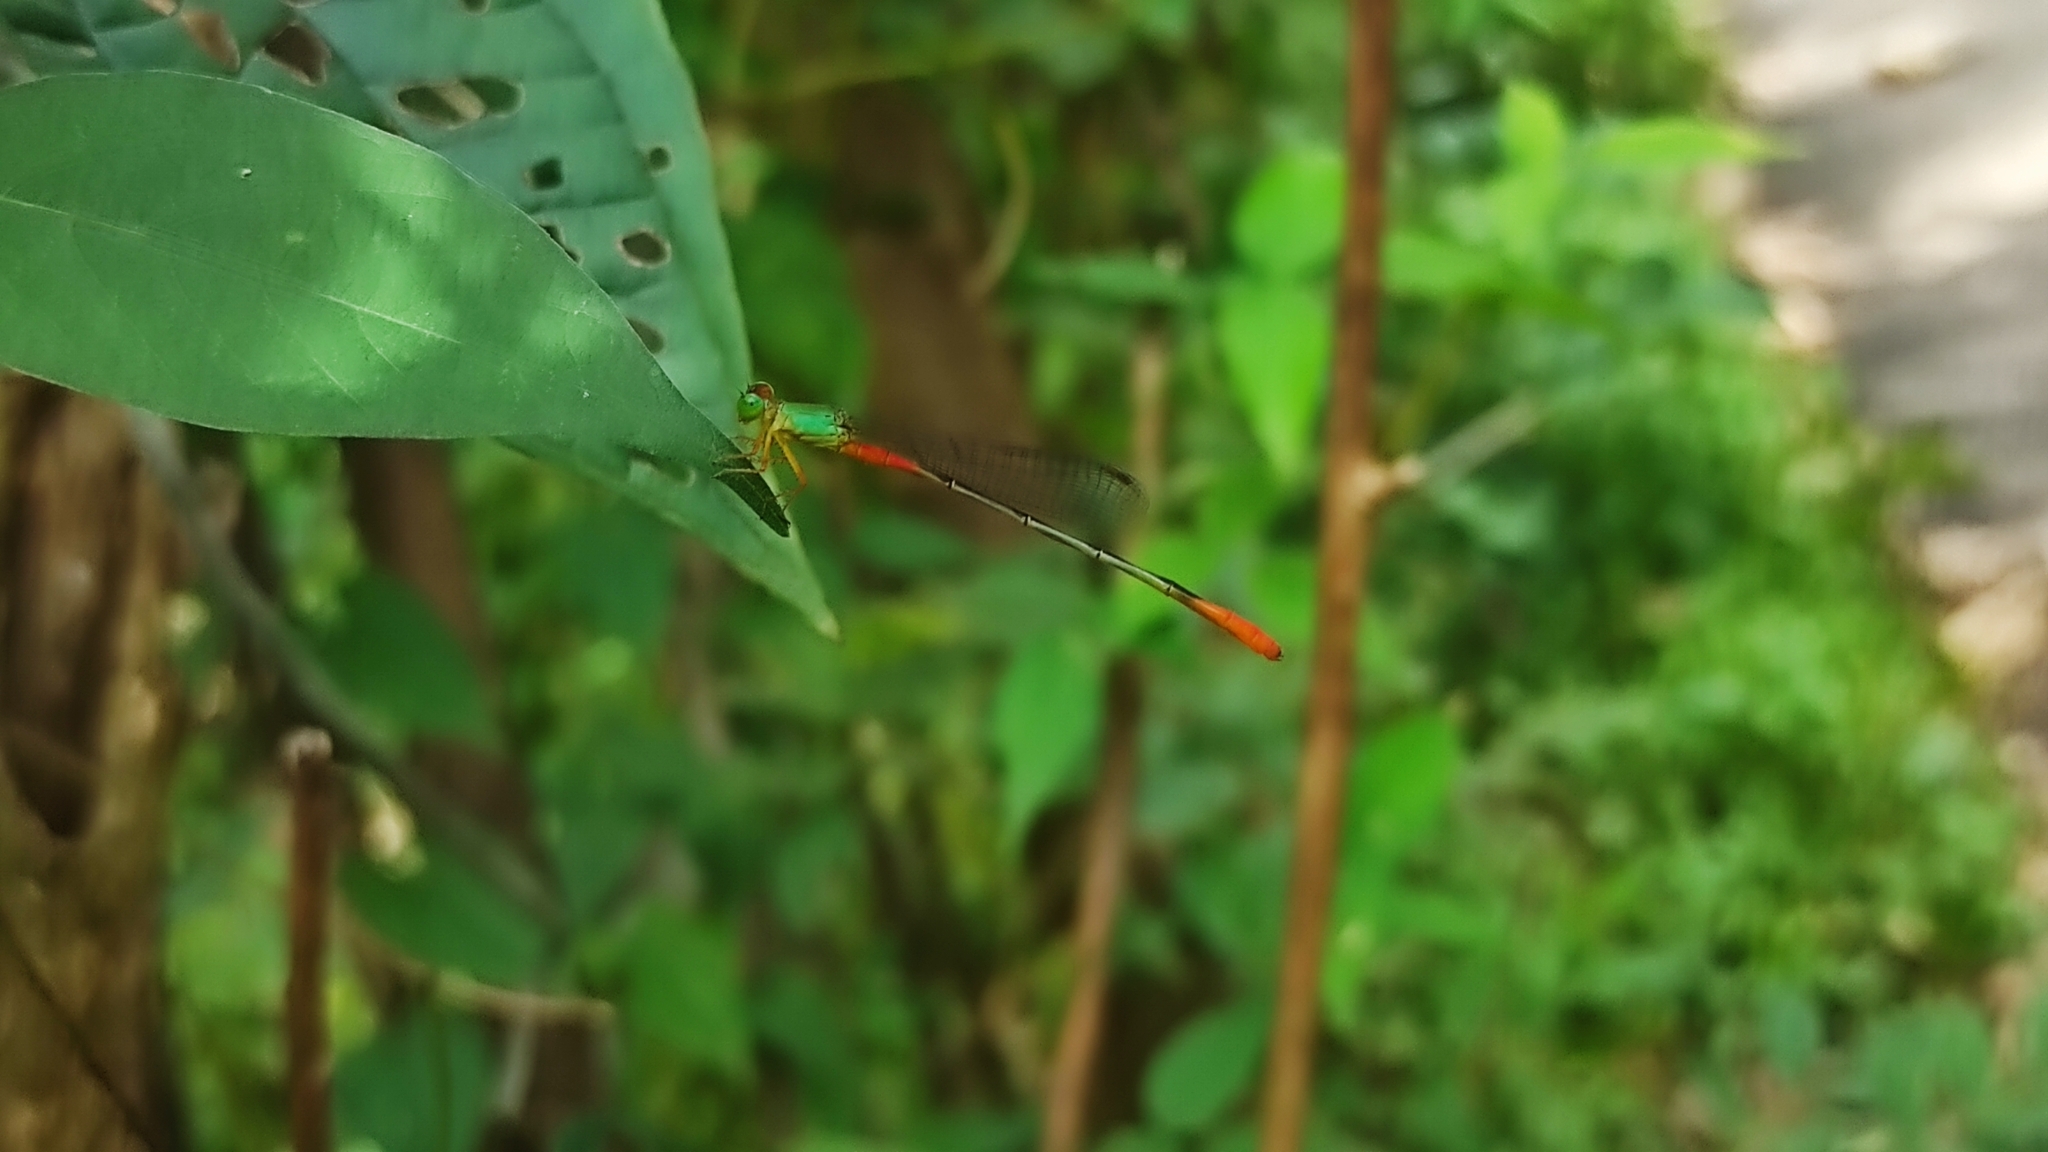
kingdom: Animalia
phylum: Arthropoda
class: Insecta
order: Odonata
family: Coenagrionidae
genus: Ceriagrion
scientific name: Ceriagrion cerinorubellum
